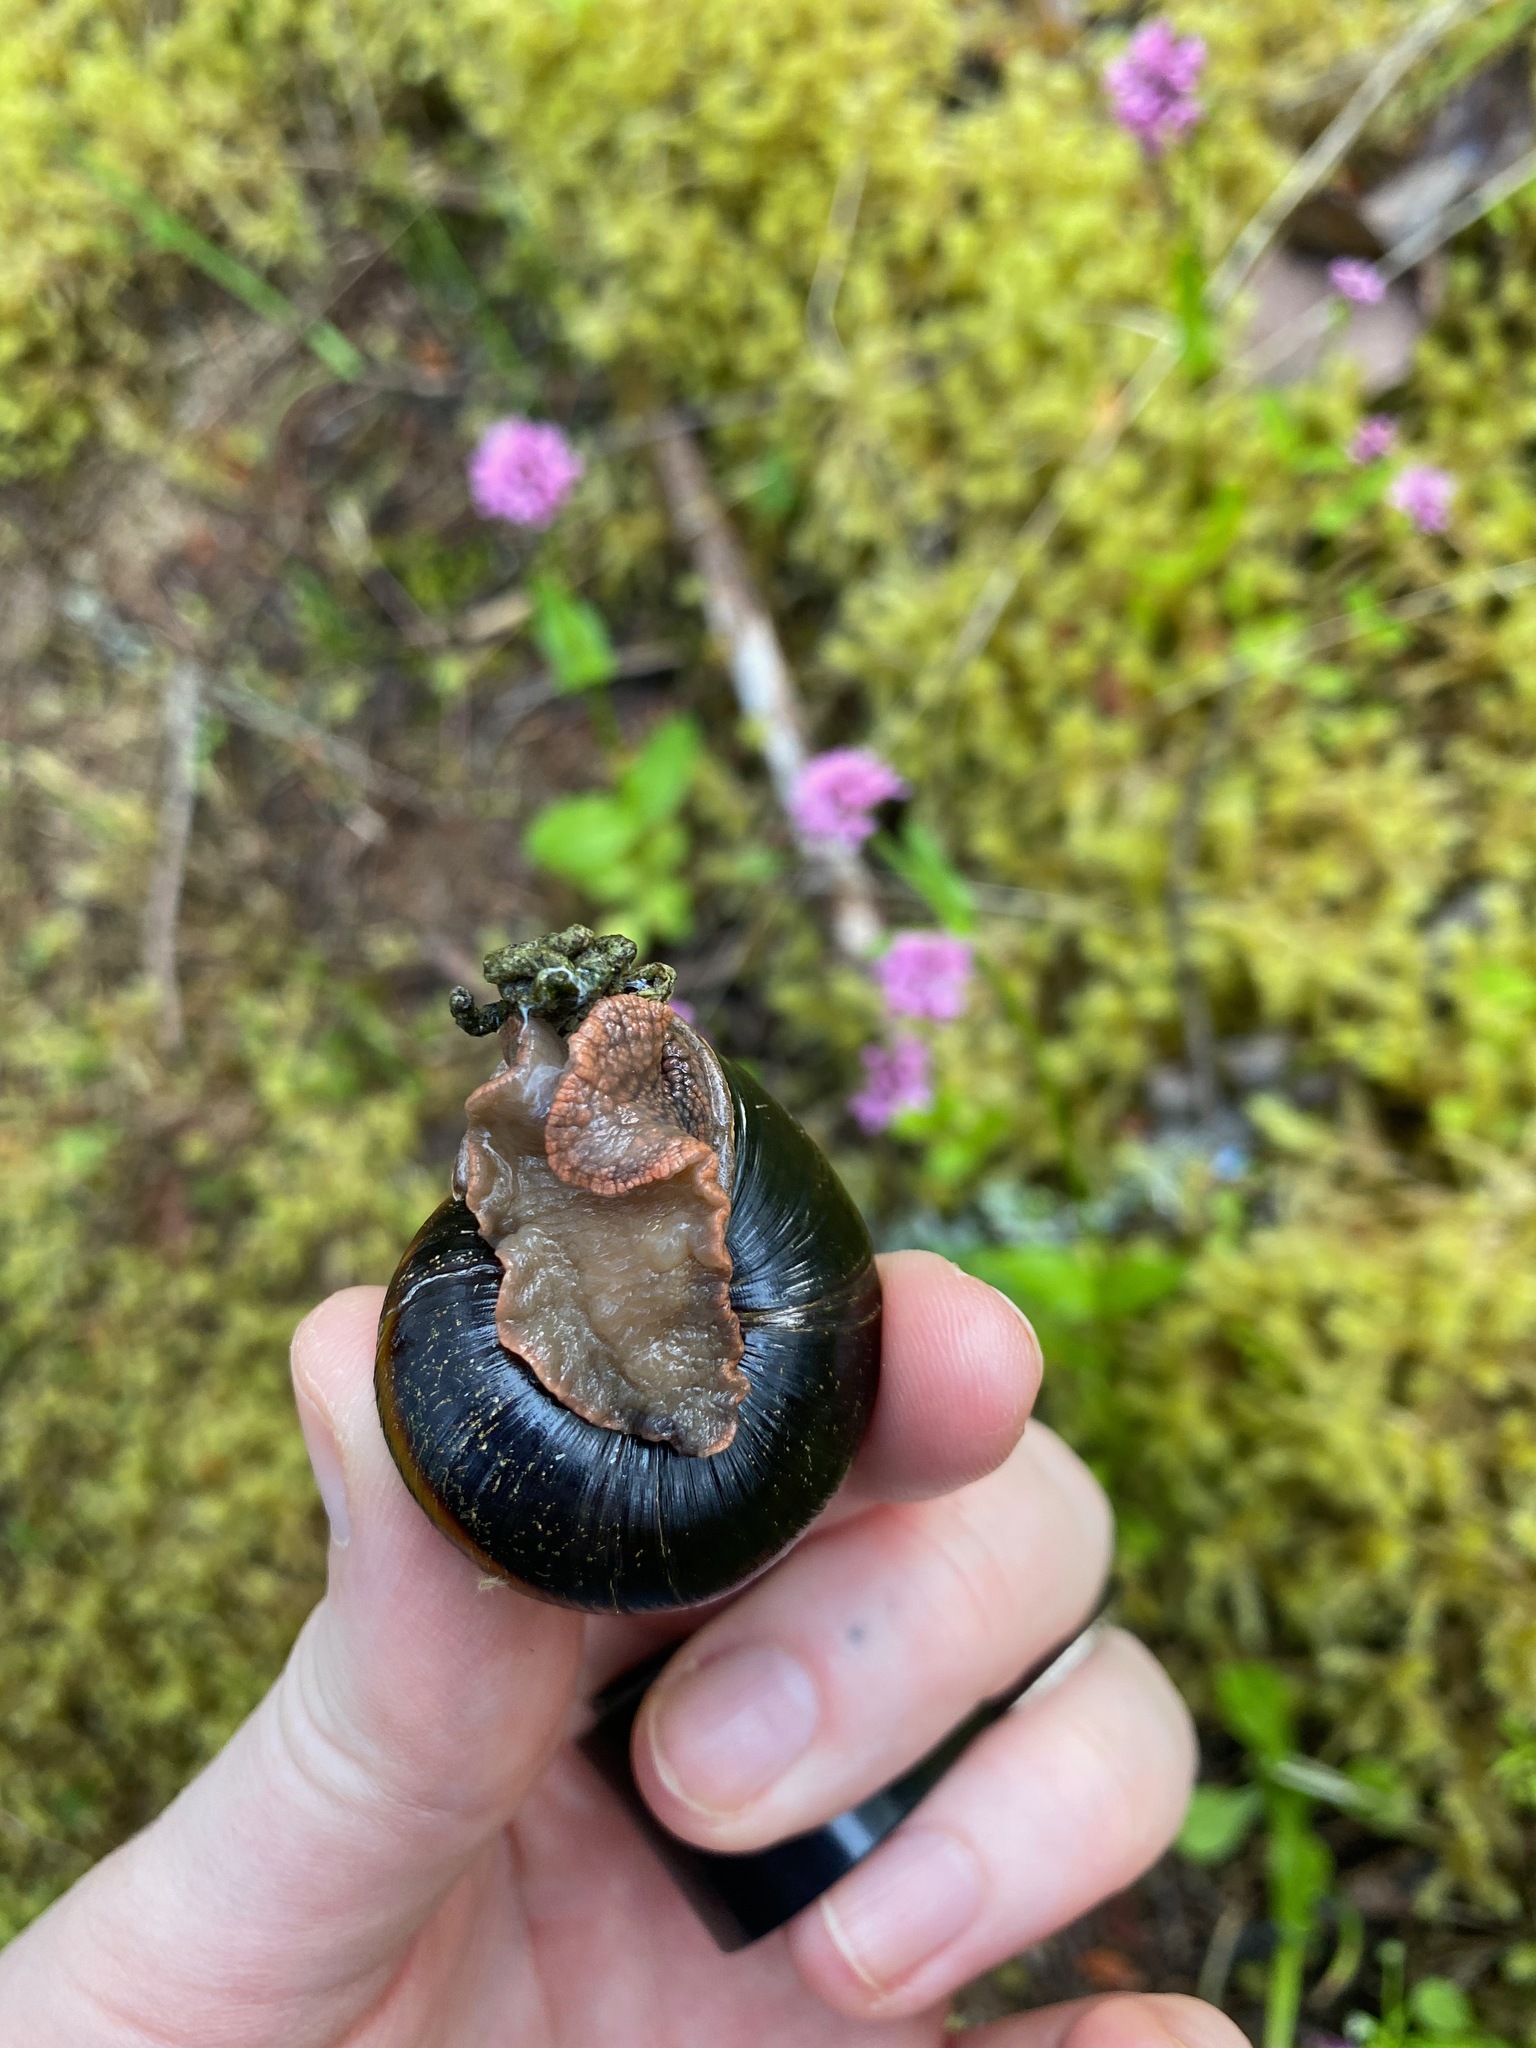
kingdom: Animalia
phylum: Mollusca
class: Gastropoda
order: Stylommatophora
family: Xanthonychidae
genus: Monadenia
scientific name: Monadenia fidelis
